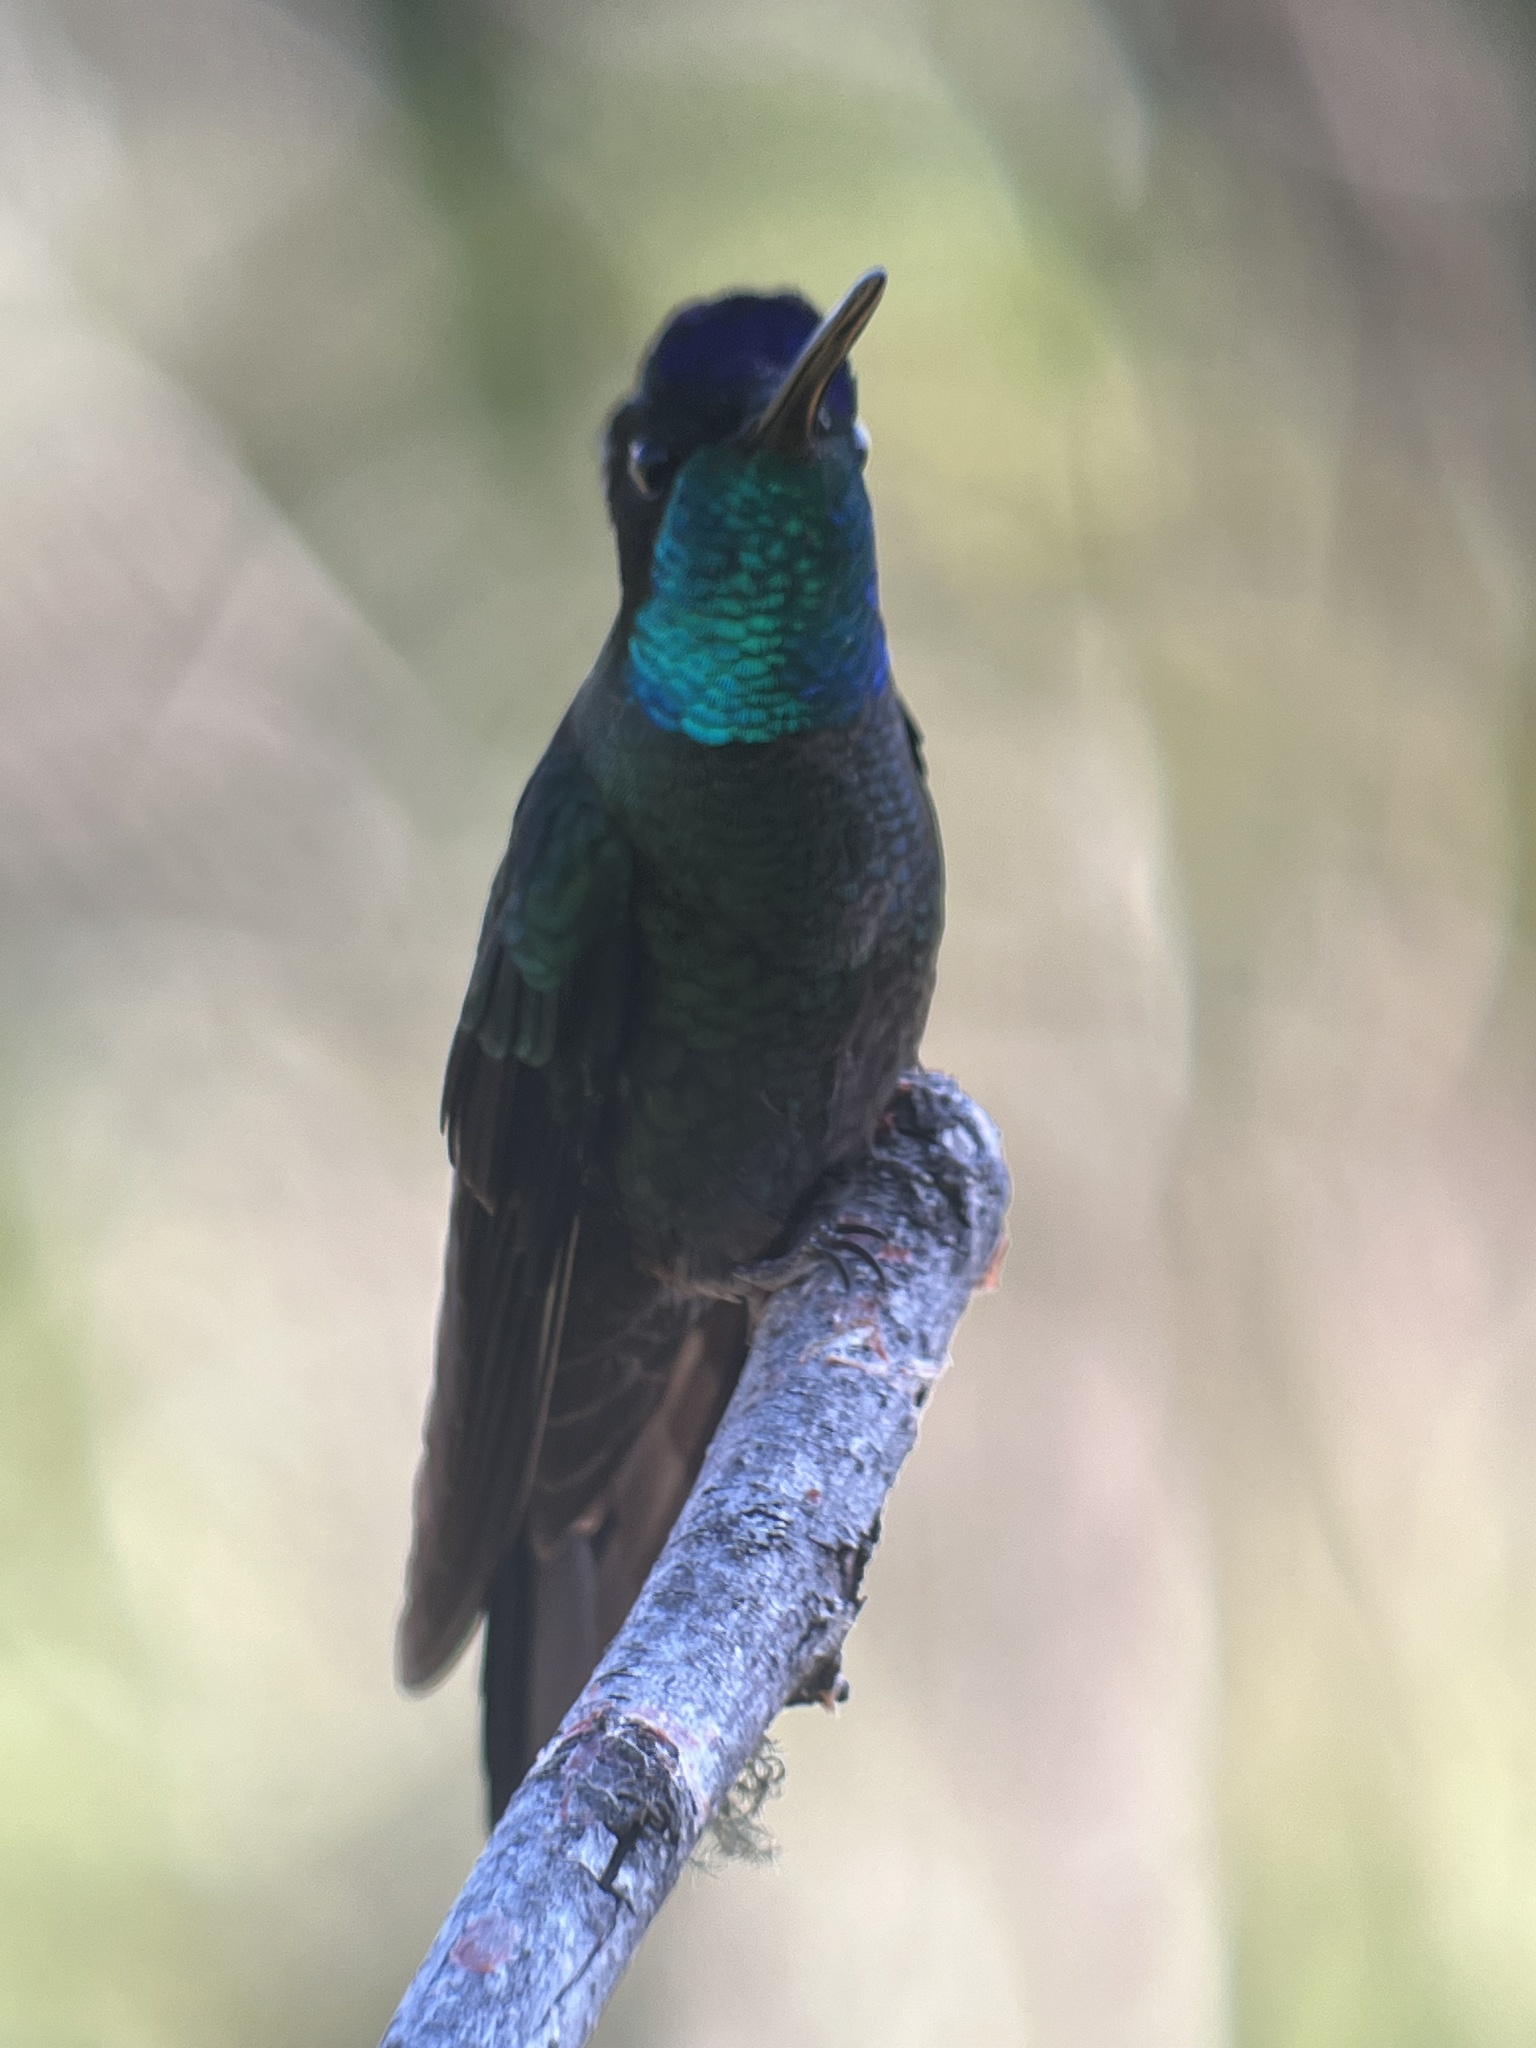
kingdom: Animalia
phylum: Chordata
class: Aves
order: Apodiformes
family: Trochilidae
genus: Eugenes
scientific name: Eugenes spectabilis
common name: Talamanca hummingbird
